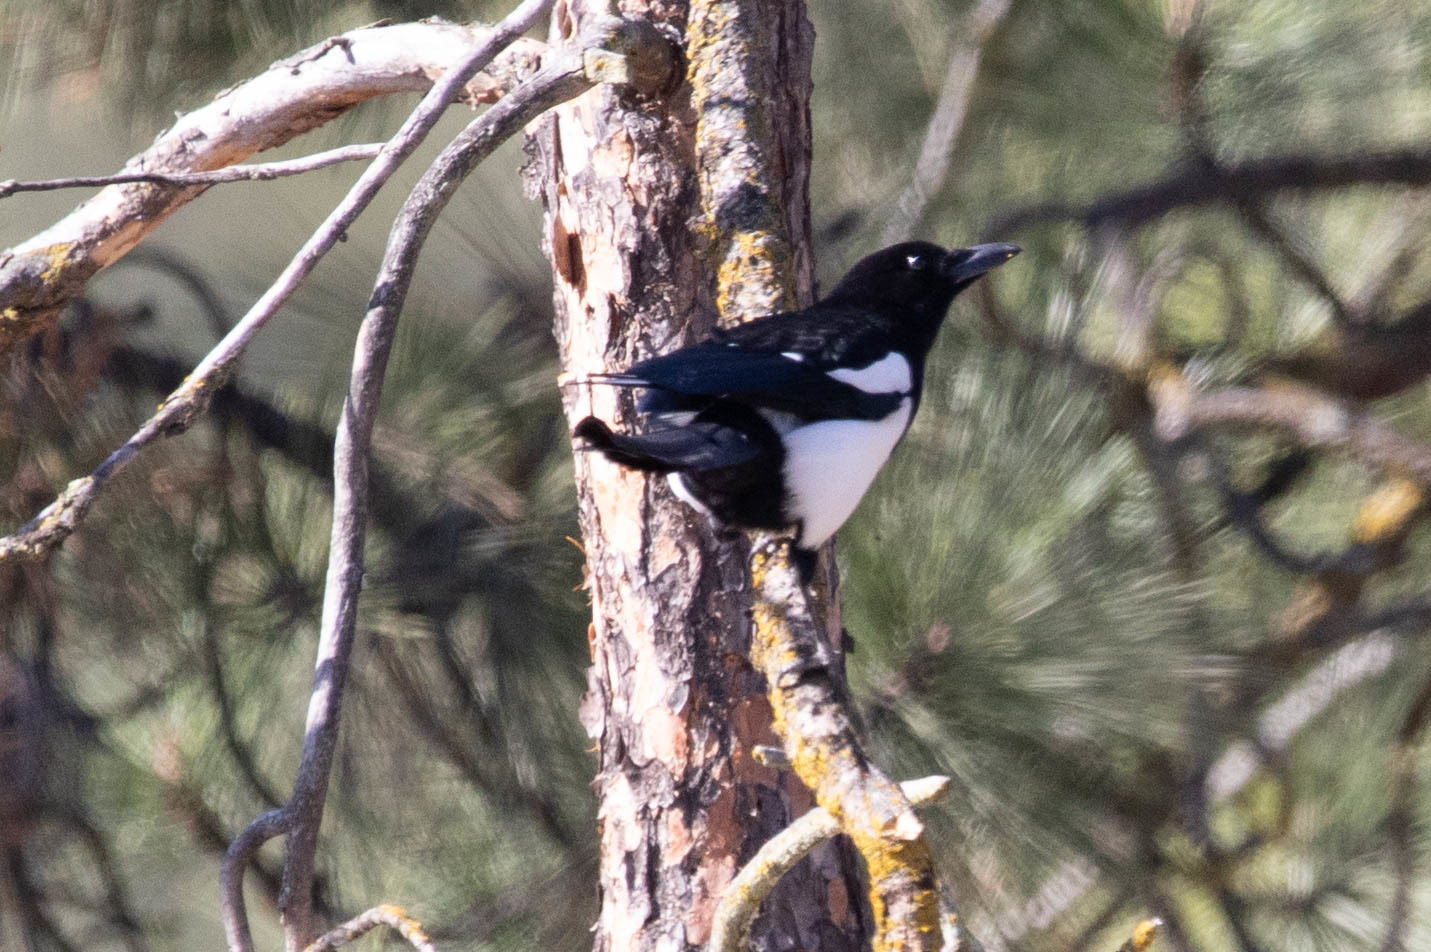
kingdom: Animalia
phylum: Chordata
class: Aves
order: Passeriformes
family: Corvidae
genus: Pica
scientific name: Pica hudsonia
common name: Black-billed magpie
